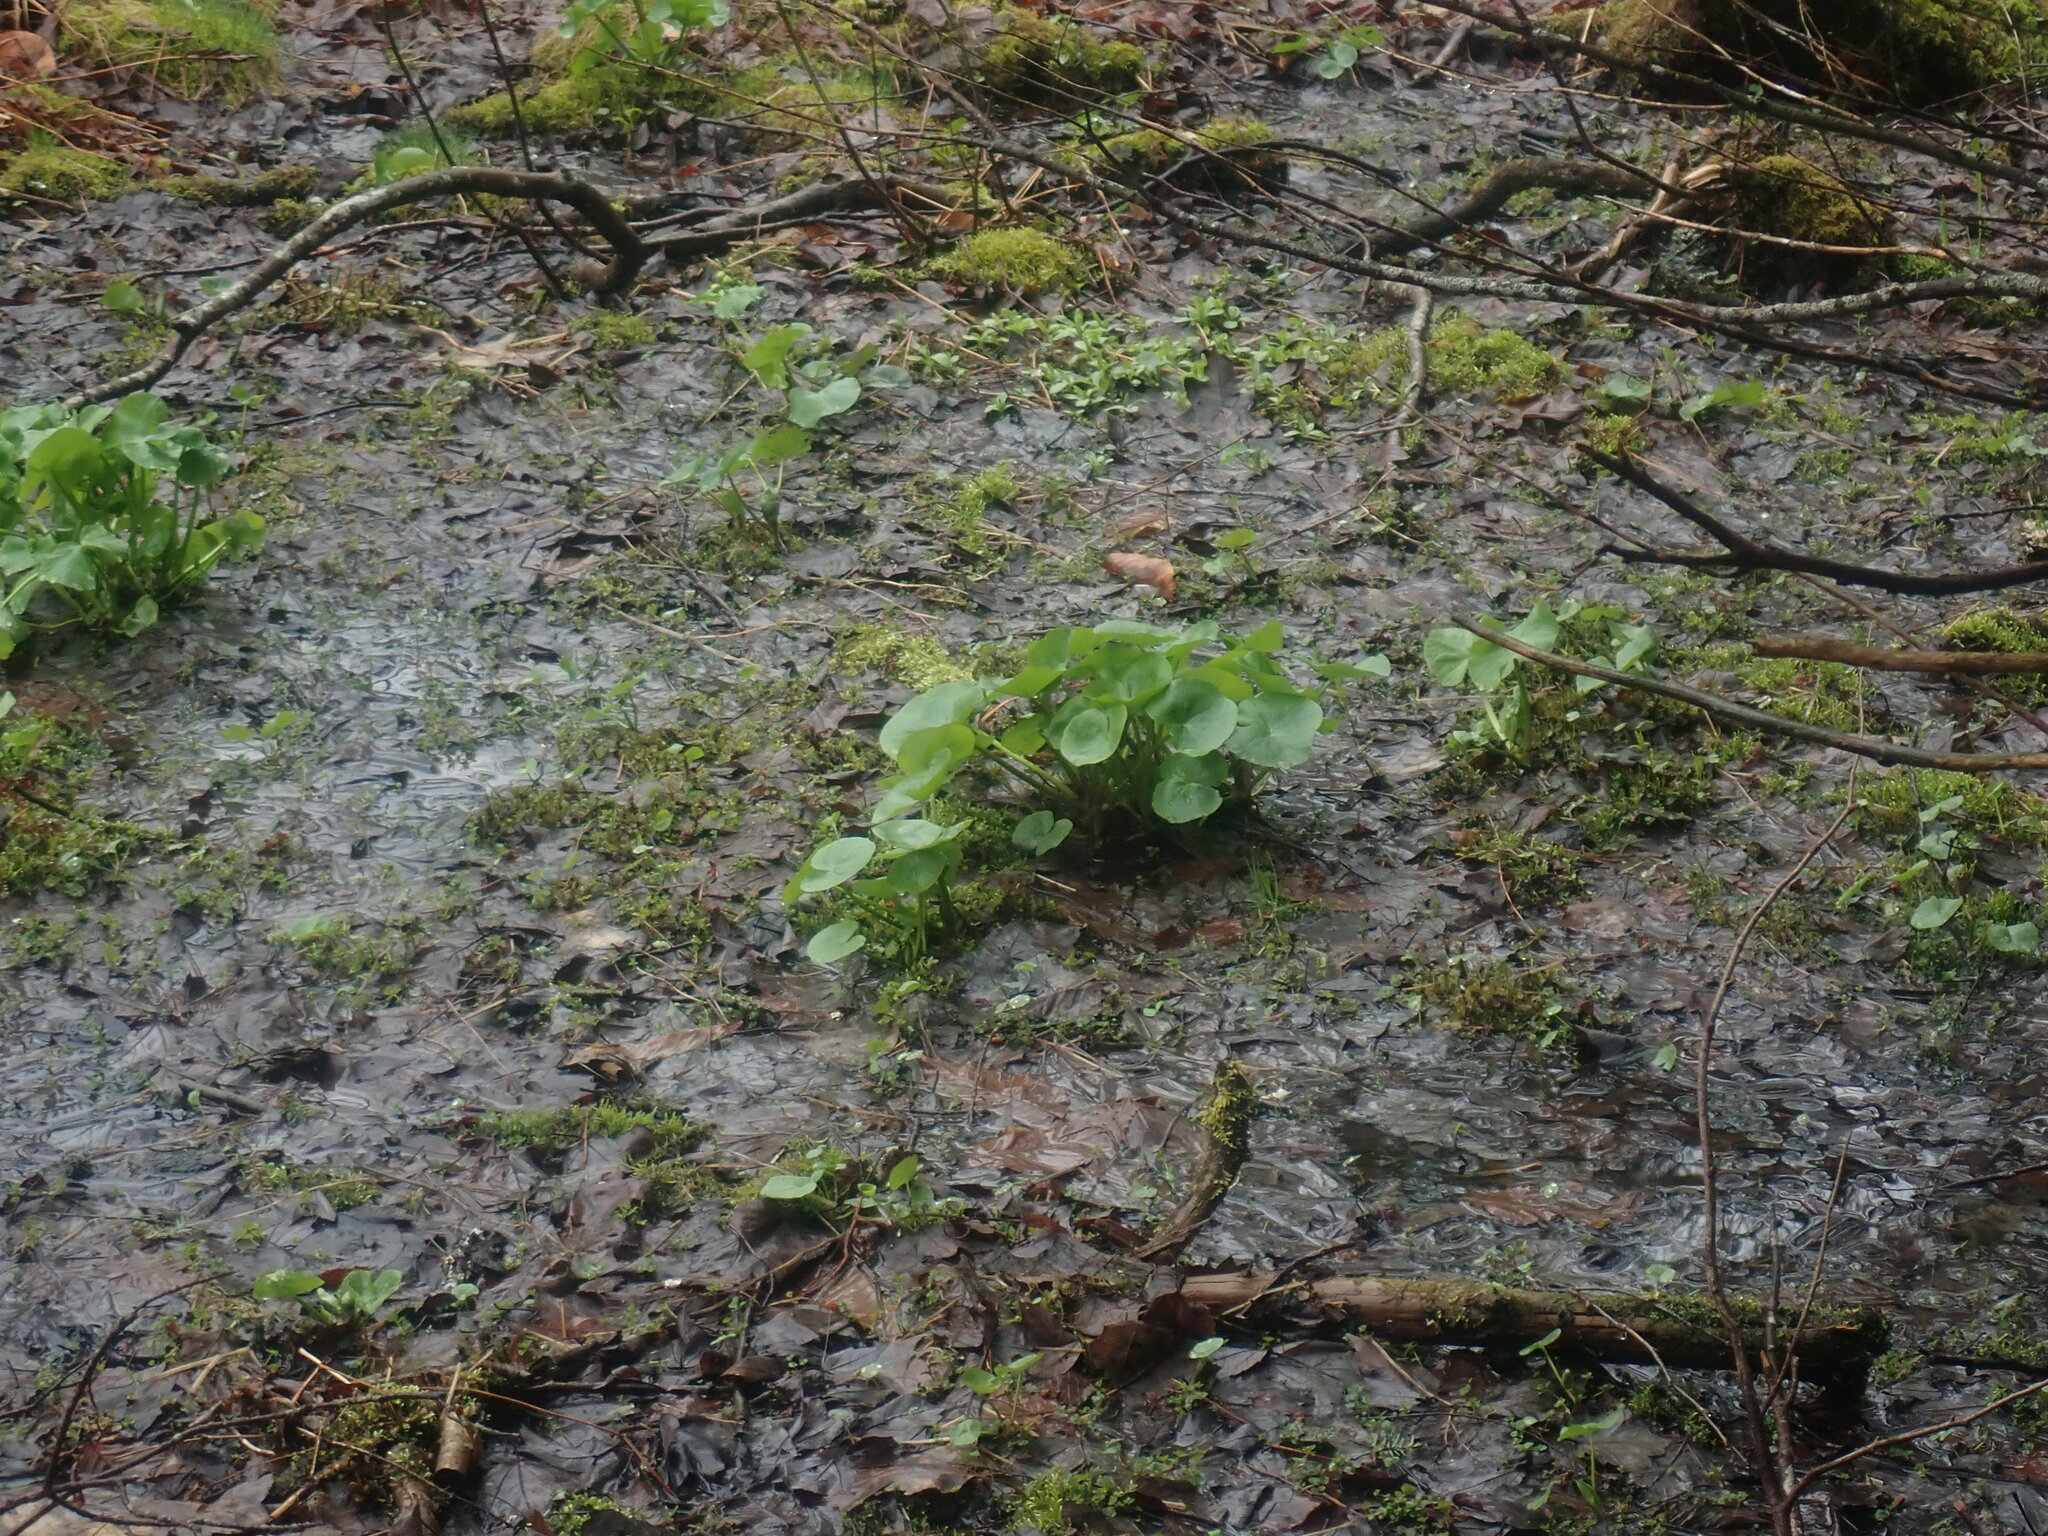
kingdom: Plantae
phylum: Tracheophyta
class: Magnoliopsida
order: Ranunculales
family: Ranunculaceae
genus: Caltha
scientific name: Caltha palustris
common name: Marsh marigold
